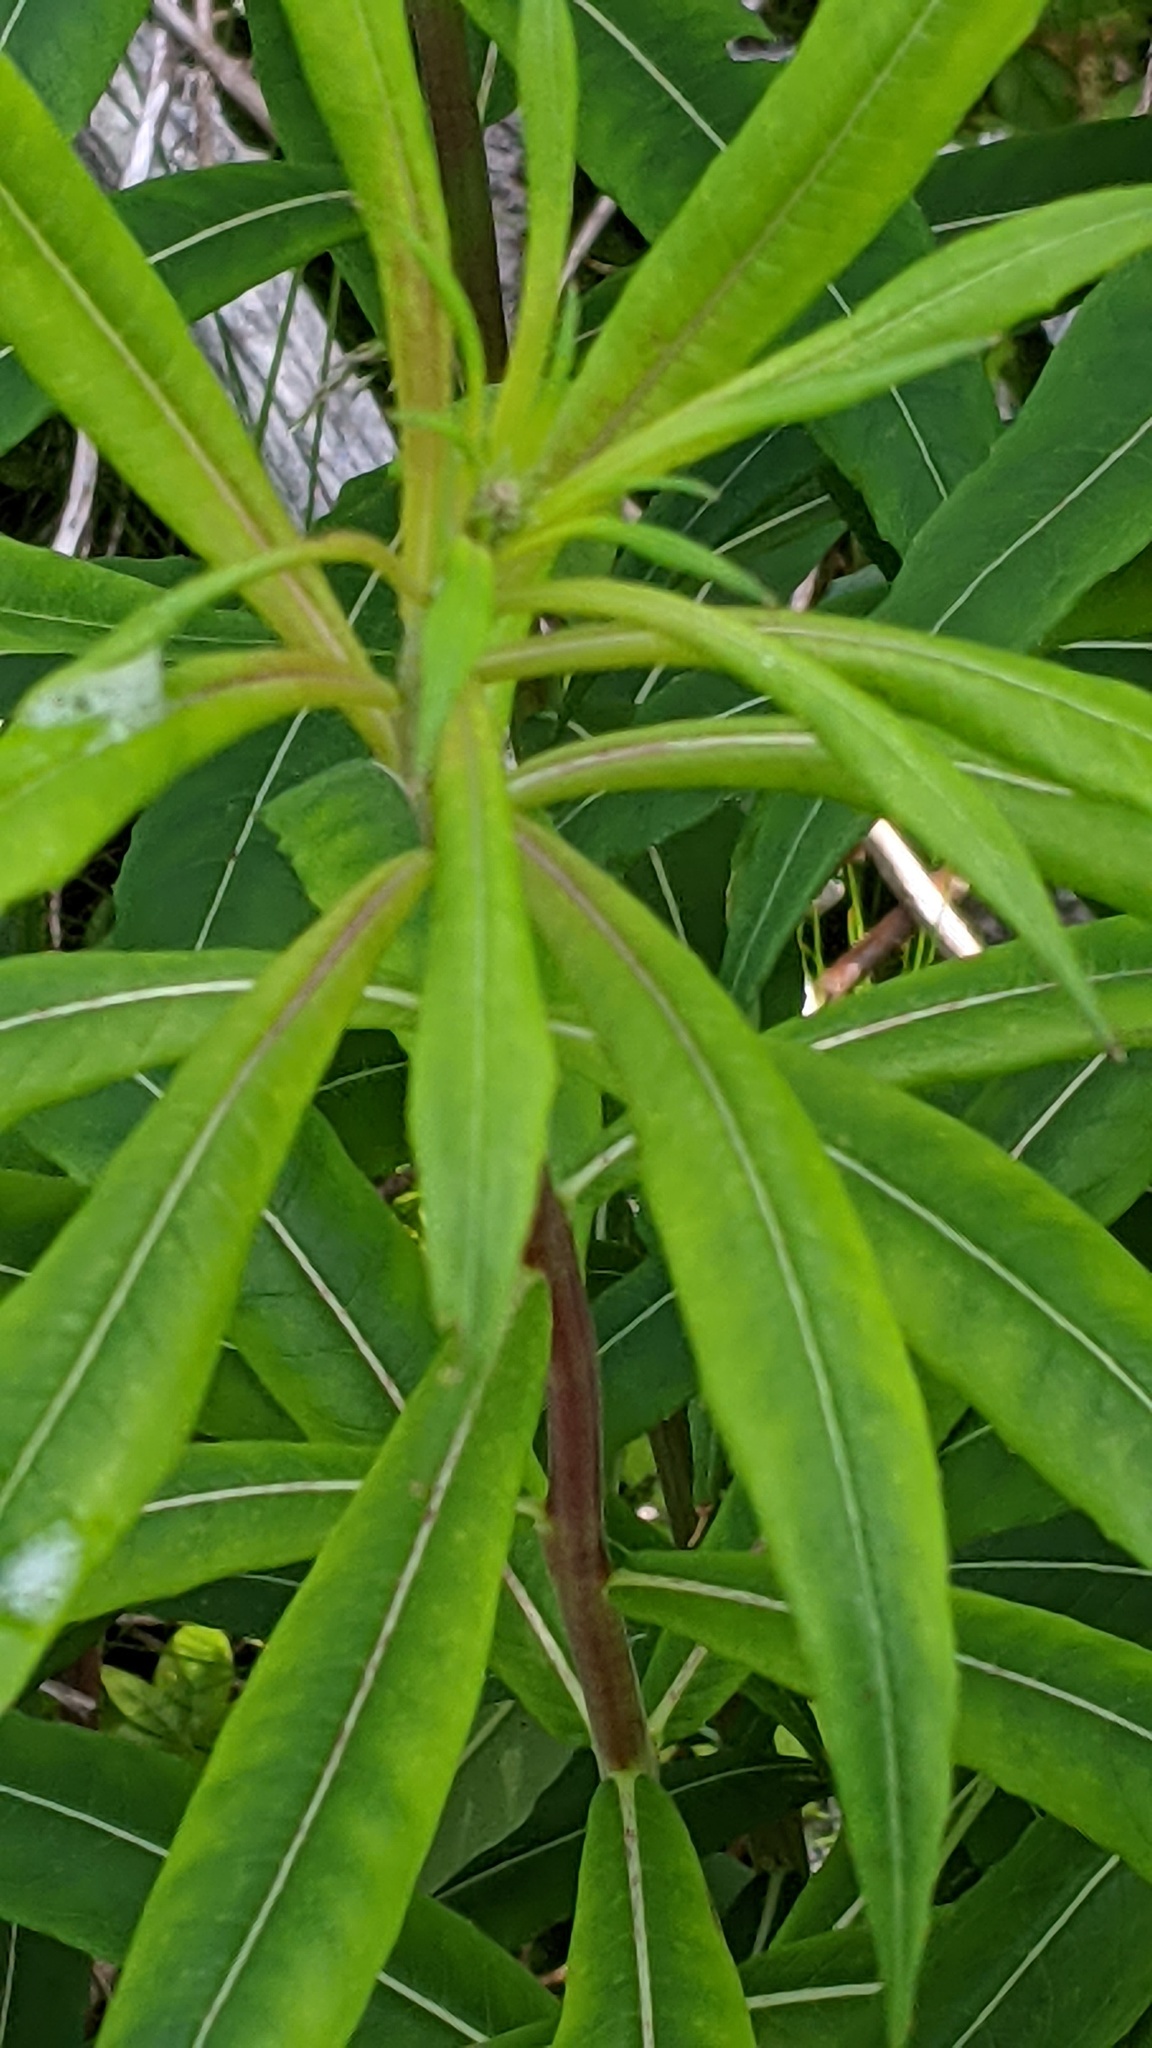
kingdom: Plantae
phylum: Tracheophyta
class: Magnoliopsida
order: Myrtales
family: Onagraceae
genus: Chamaenerion
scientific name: Chamaenerion angustifolium
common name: Fireweed
